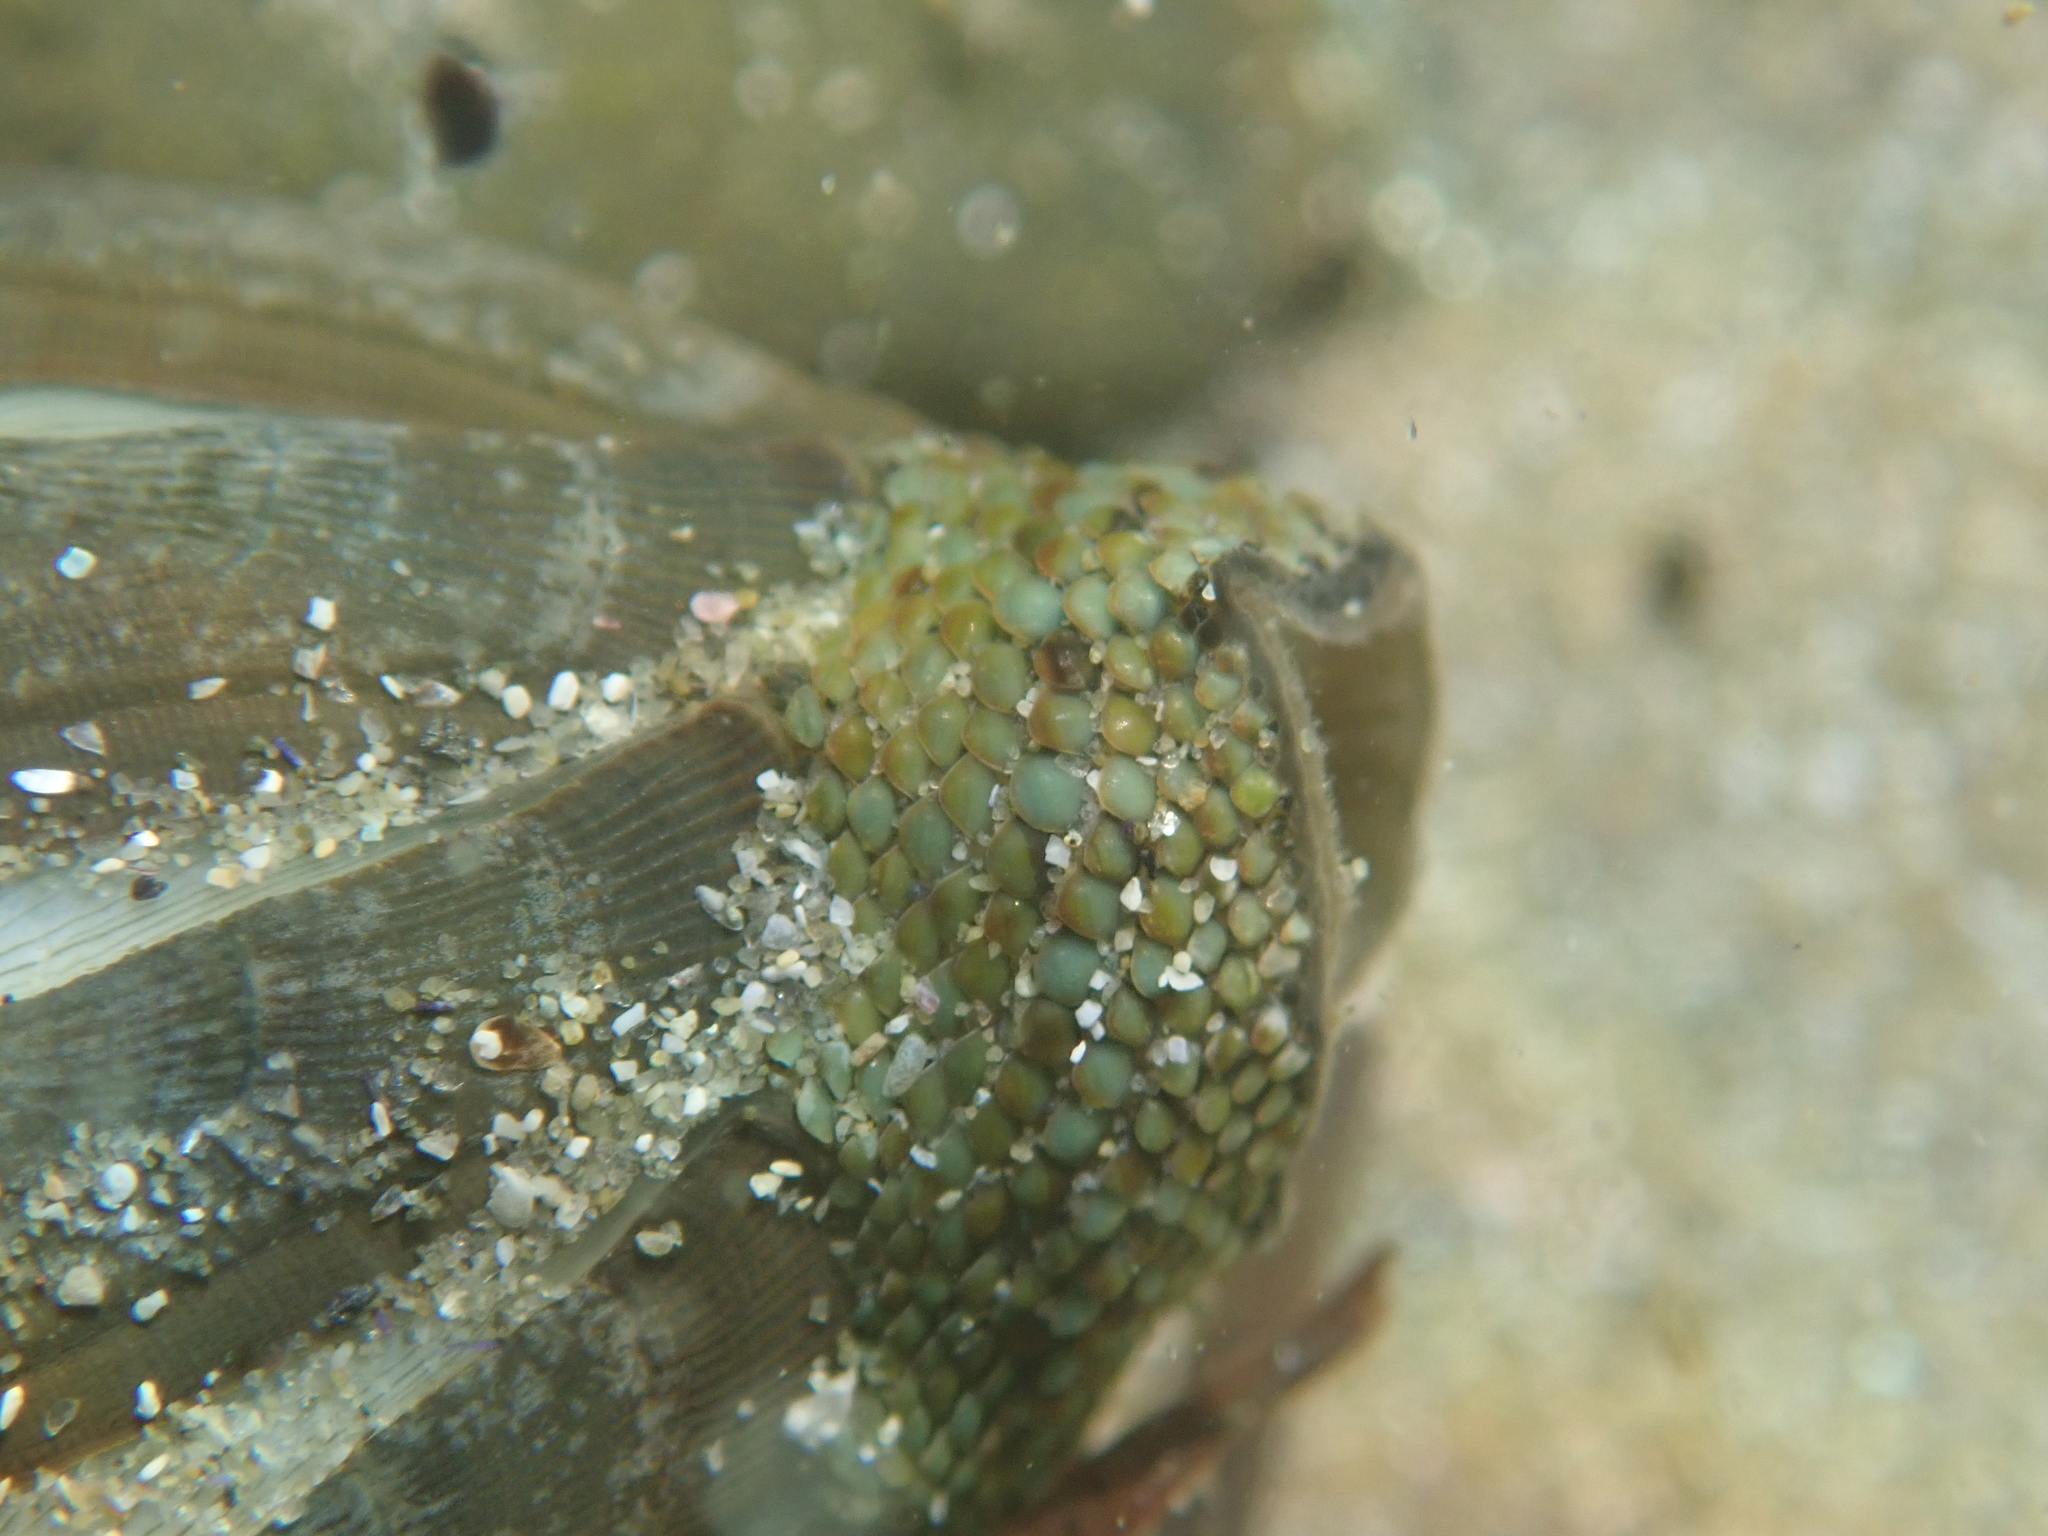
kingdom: Animalia
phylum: Mollusca
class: Polyplacophora
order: Chitonida
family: Chitonidae
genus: Chiton
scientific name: Chiton glaucus
